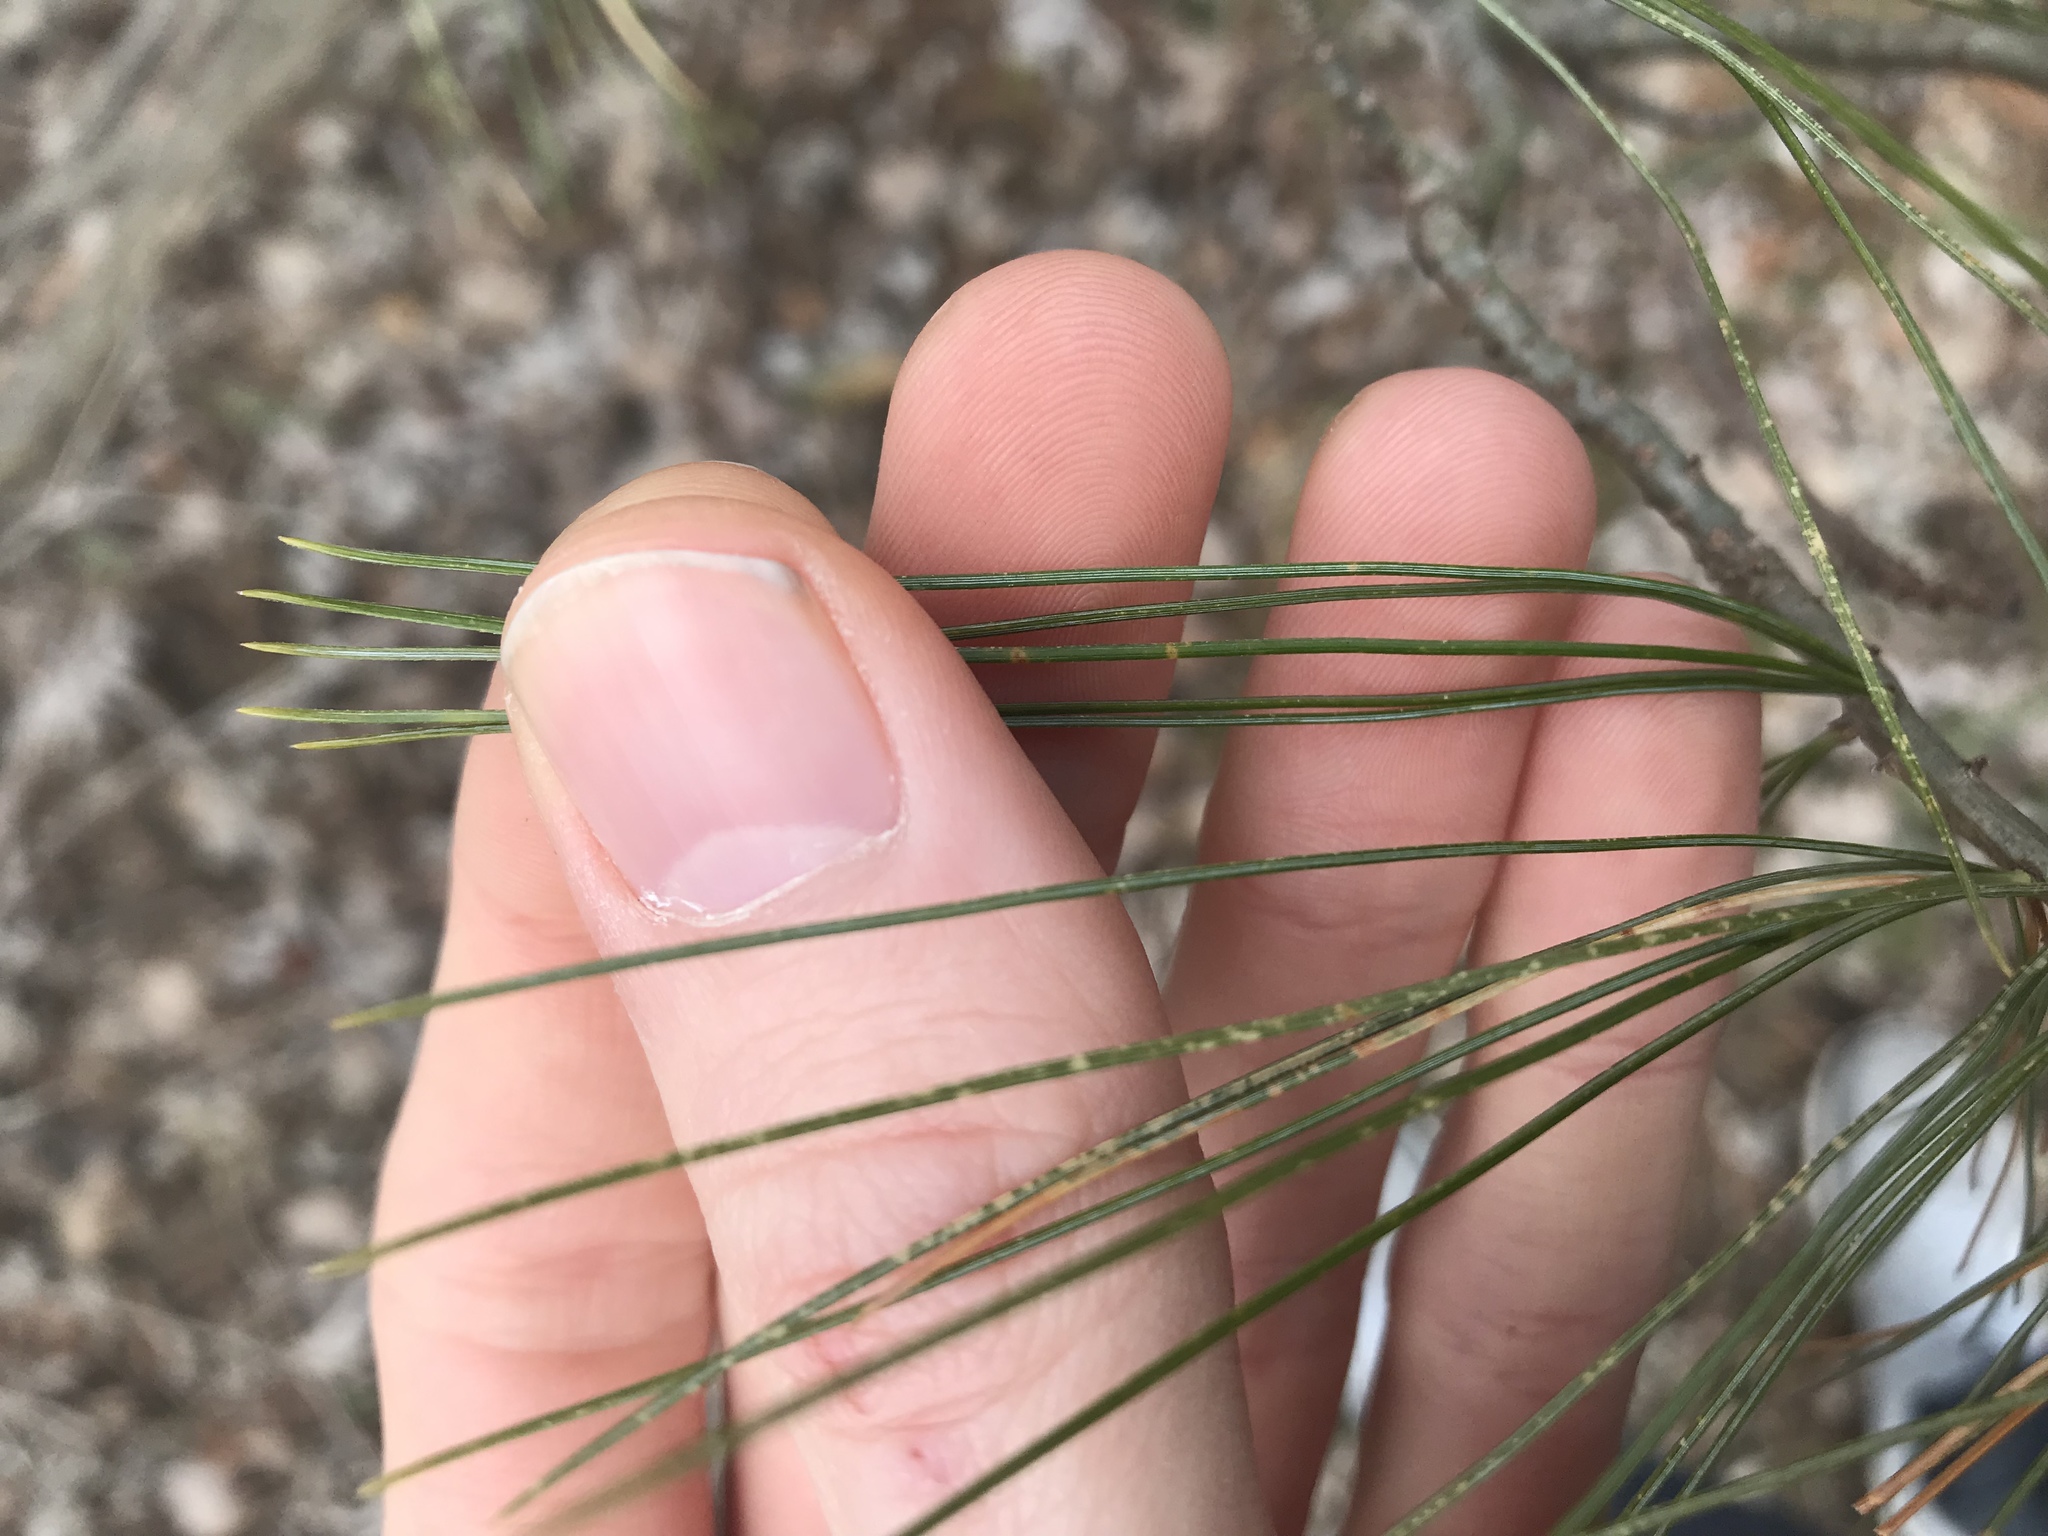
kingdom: Plantae
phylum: Tracheophyta
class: Pinopsida
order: Pinales
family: Pinaceae
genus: Pinus
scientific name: Pinus strobus
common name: Weymouth pine
